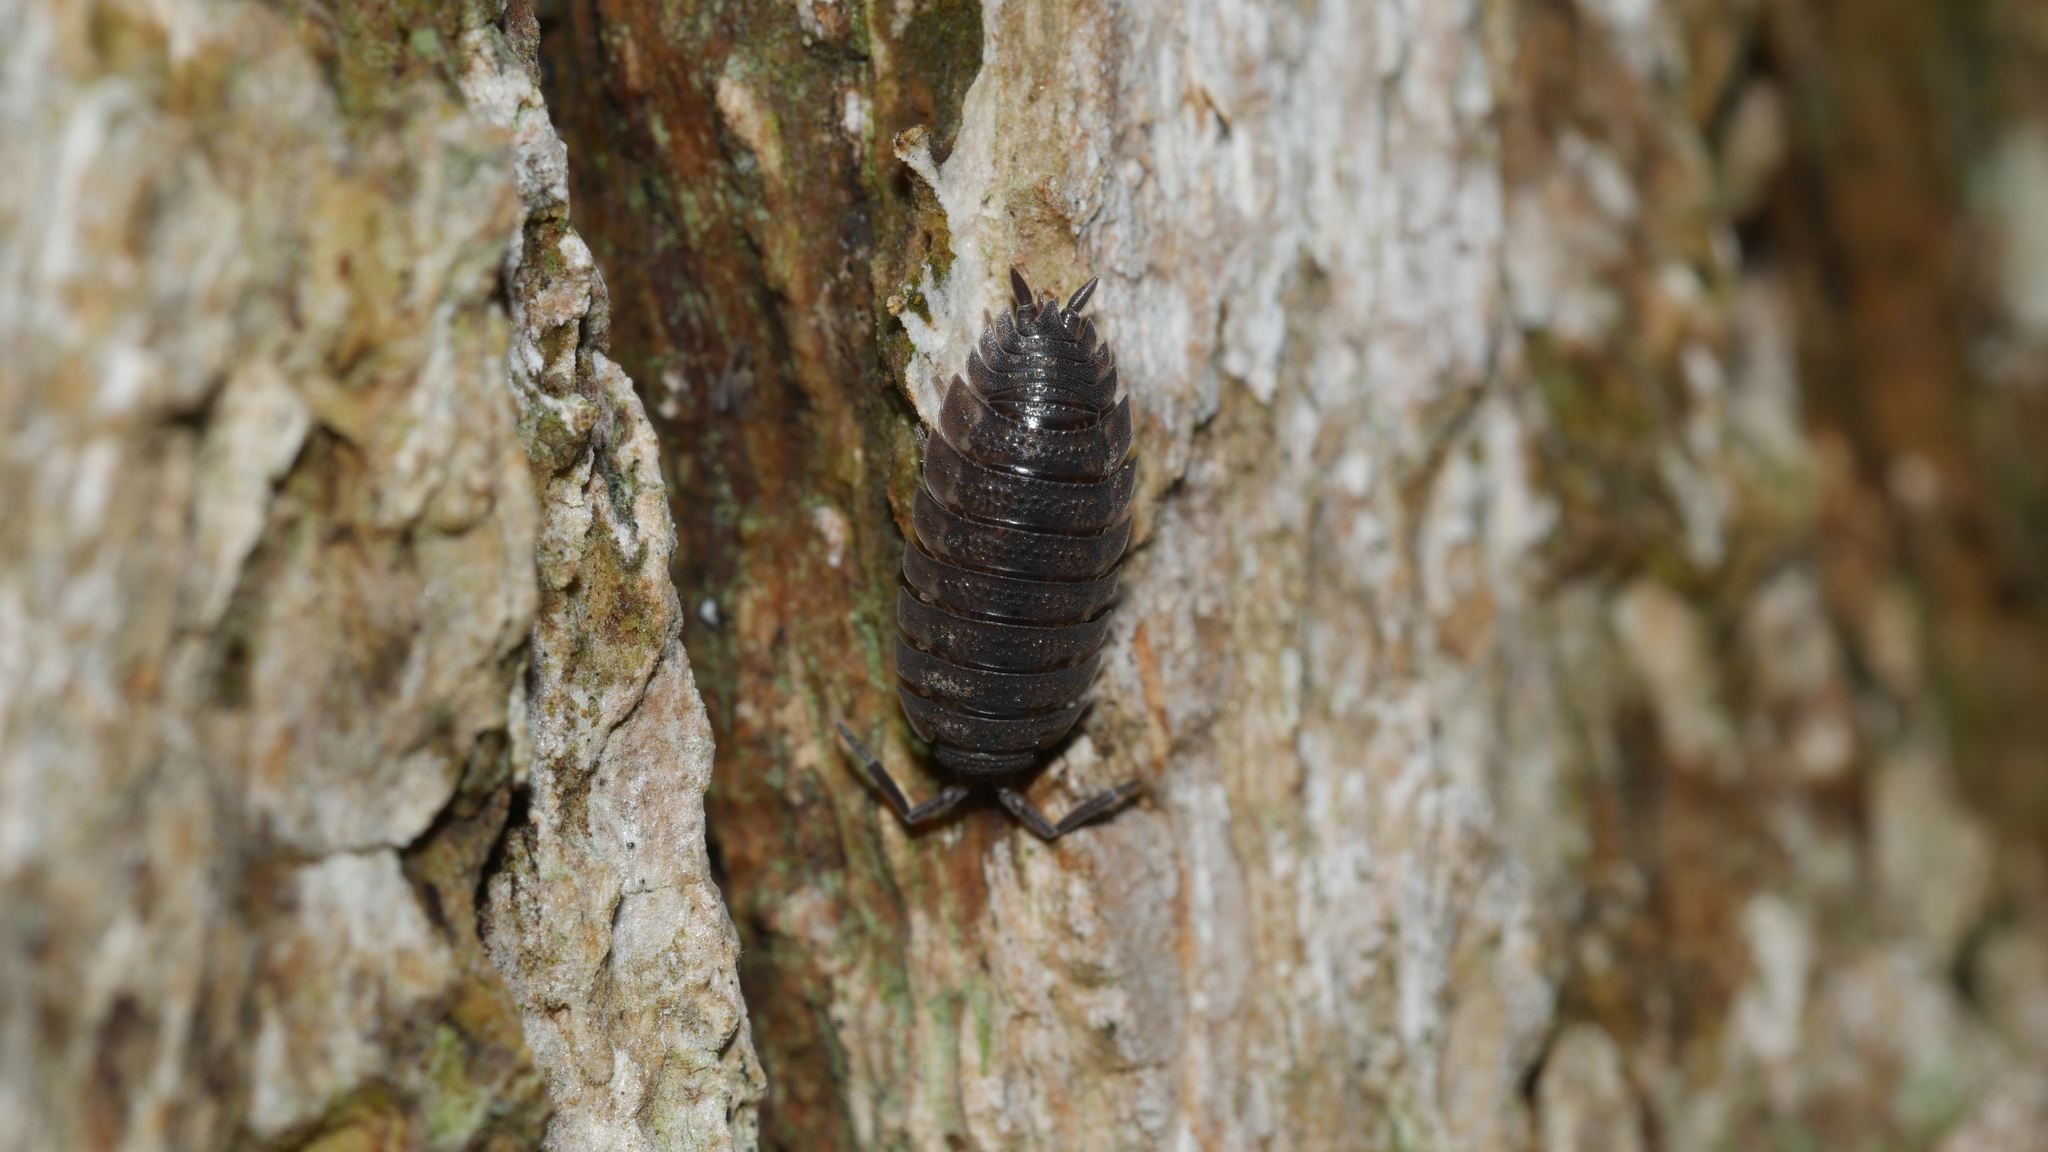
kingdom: Animalia
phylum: Arthropoda
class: Malacostraca
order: Isopoda
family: Porcellionidae
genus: Porcellio
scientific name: Porcellio scaber
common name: Common rough woodlouse
